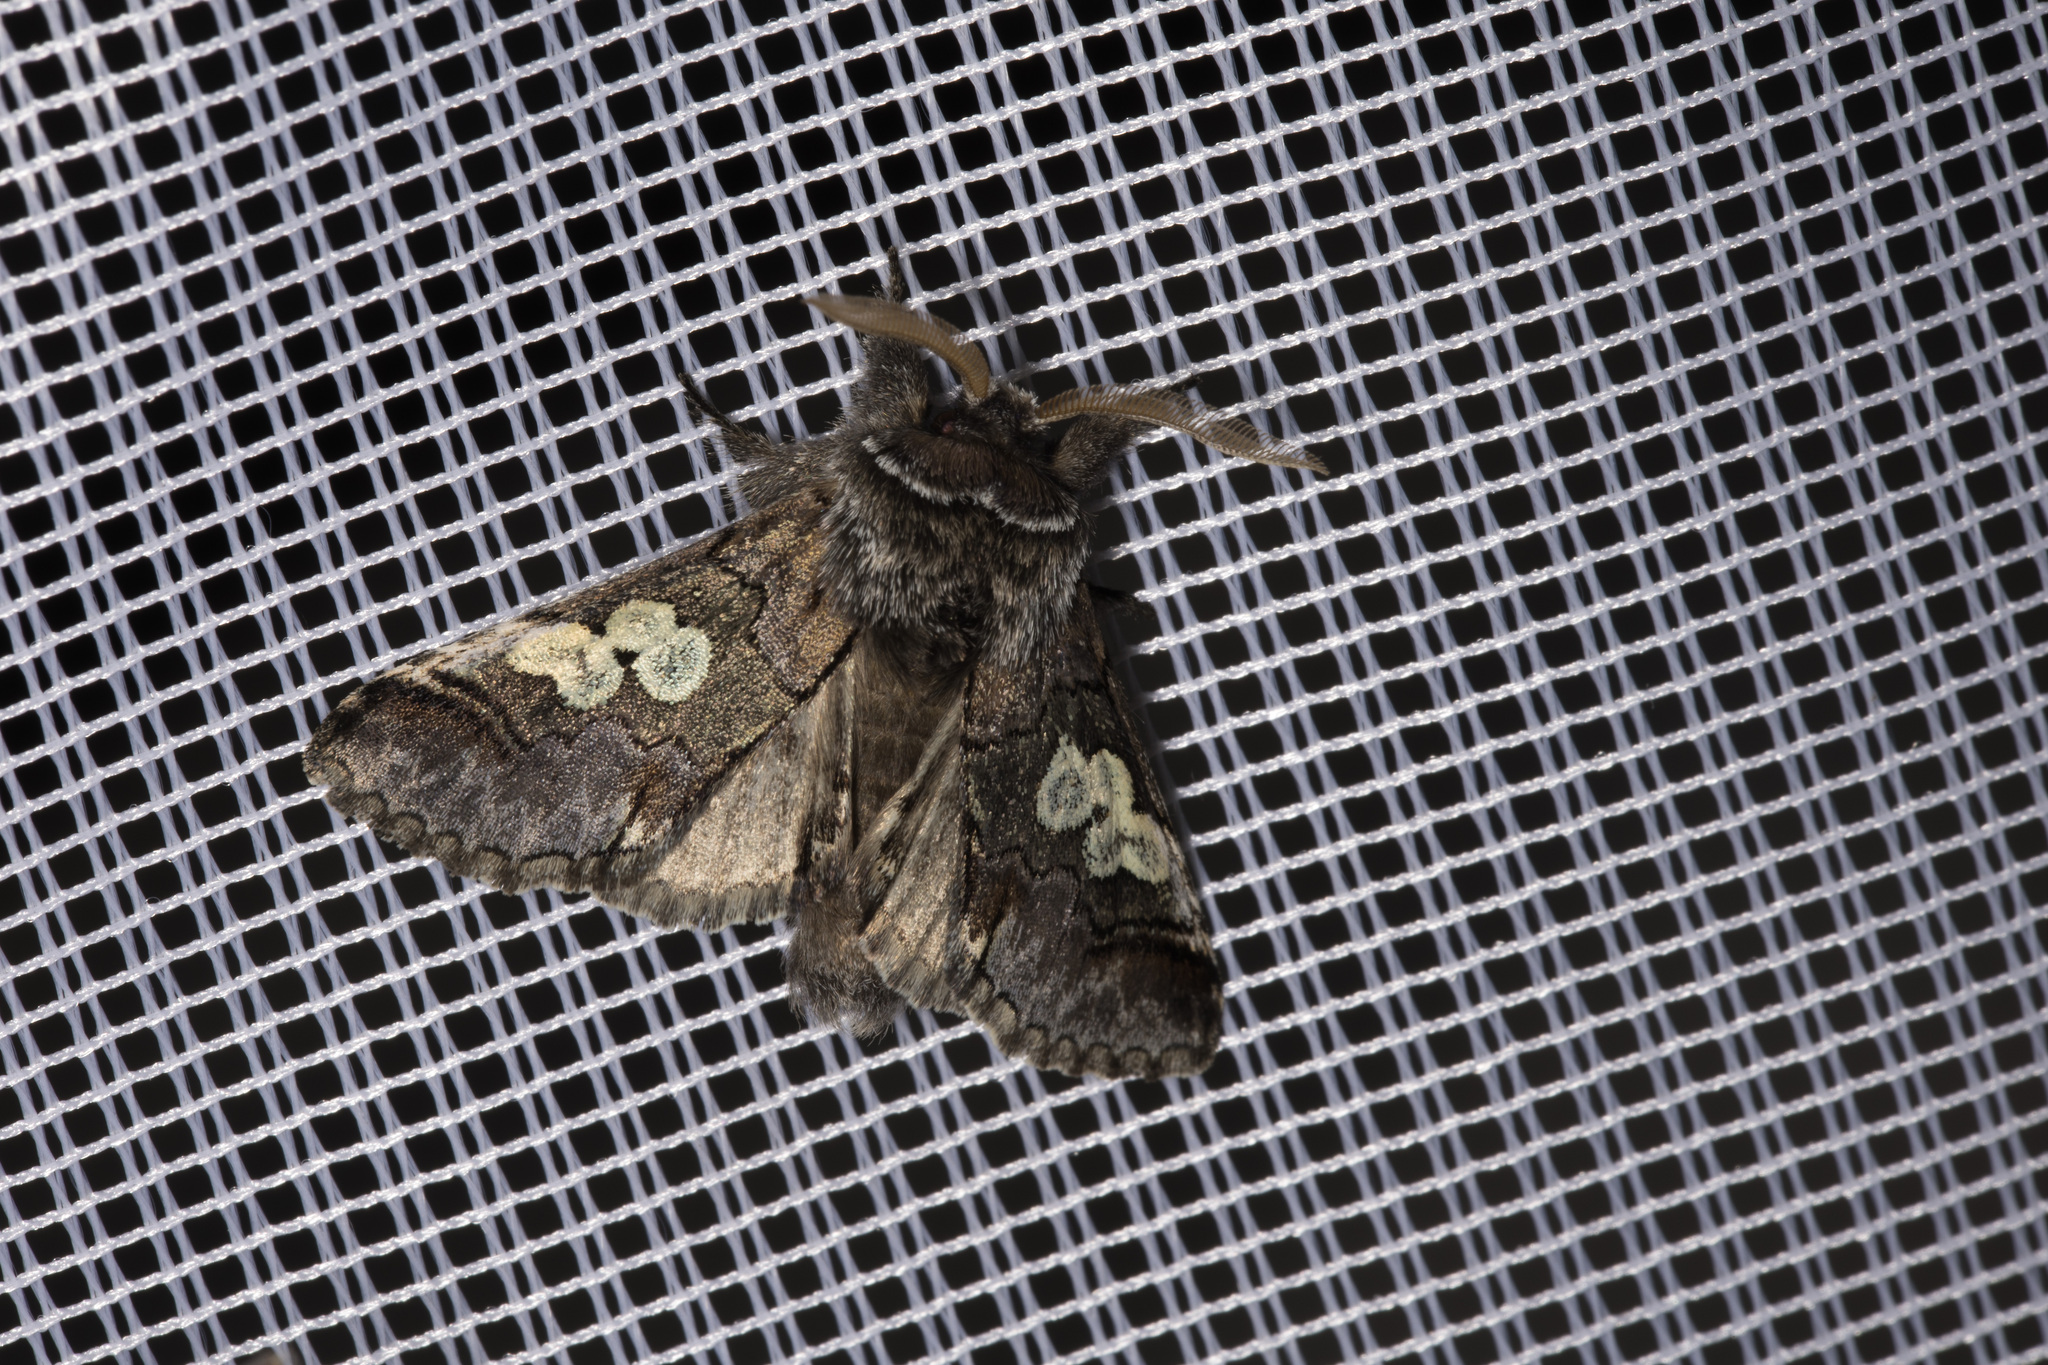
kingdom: Animalia
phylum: Arthropoda
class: Insecta
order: Lepidoptera
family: Noctuidae
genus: Diloba
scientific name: Diloba caeruleocephala
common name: Figure of eight
